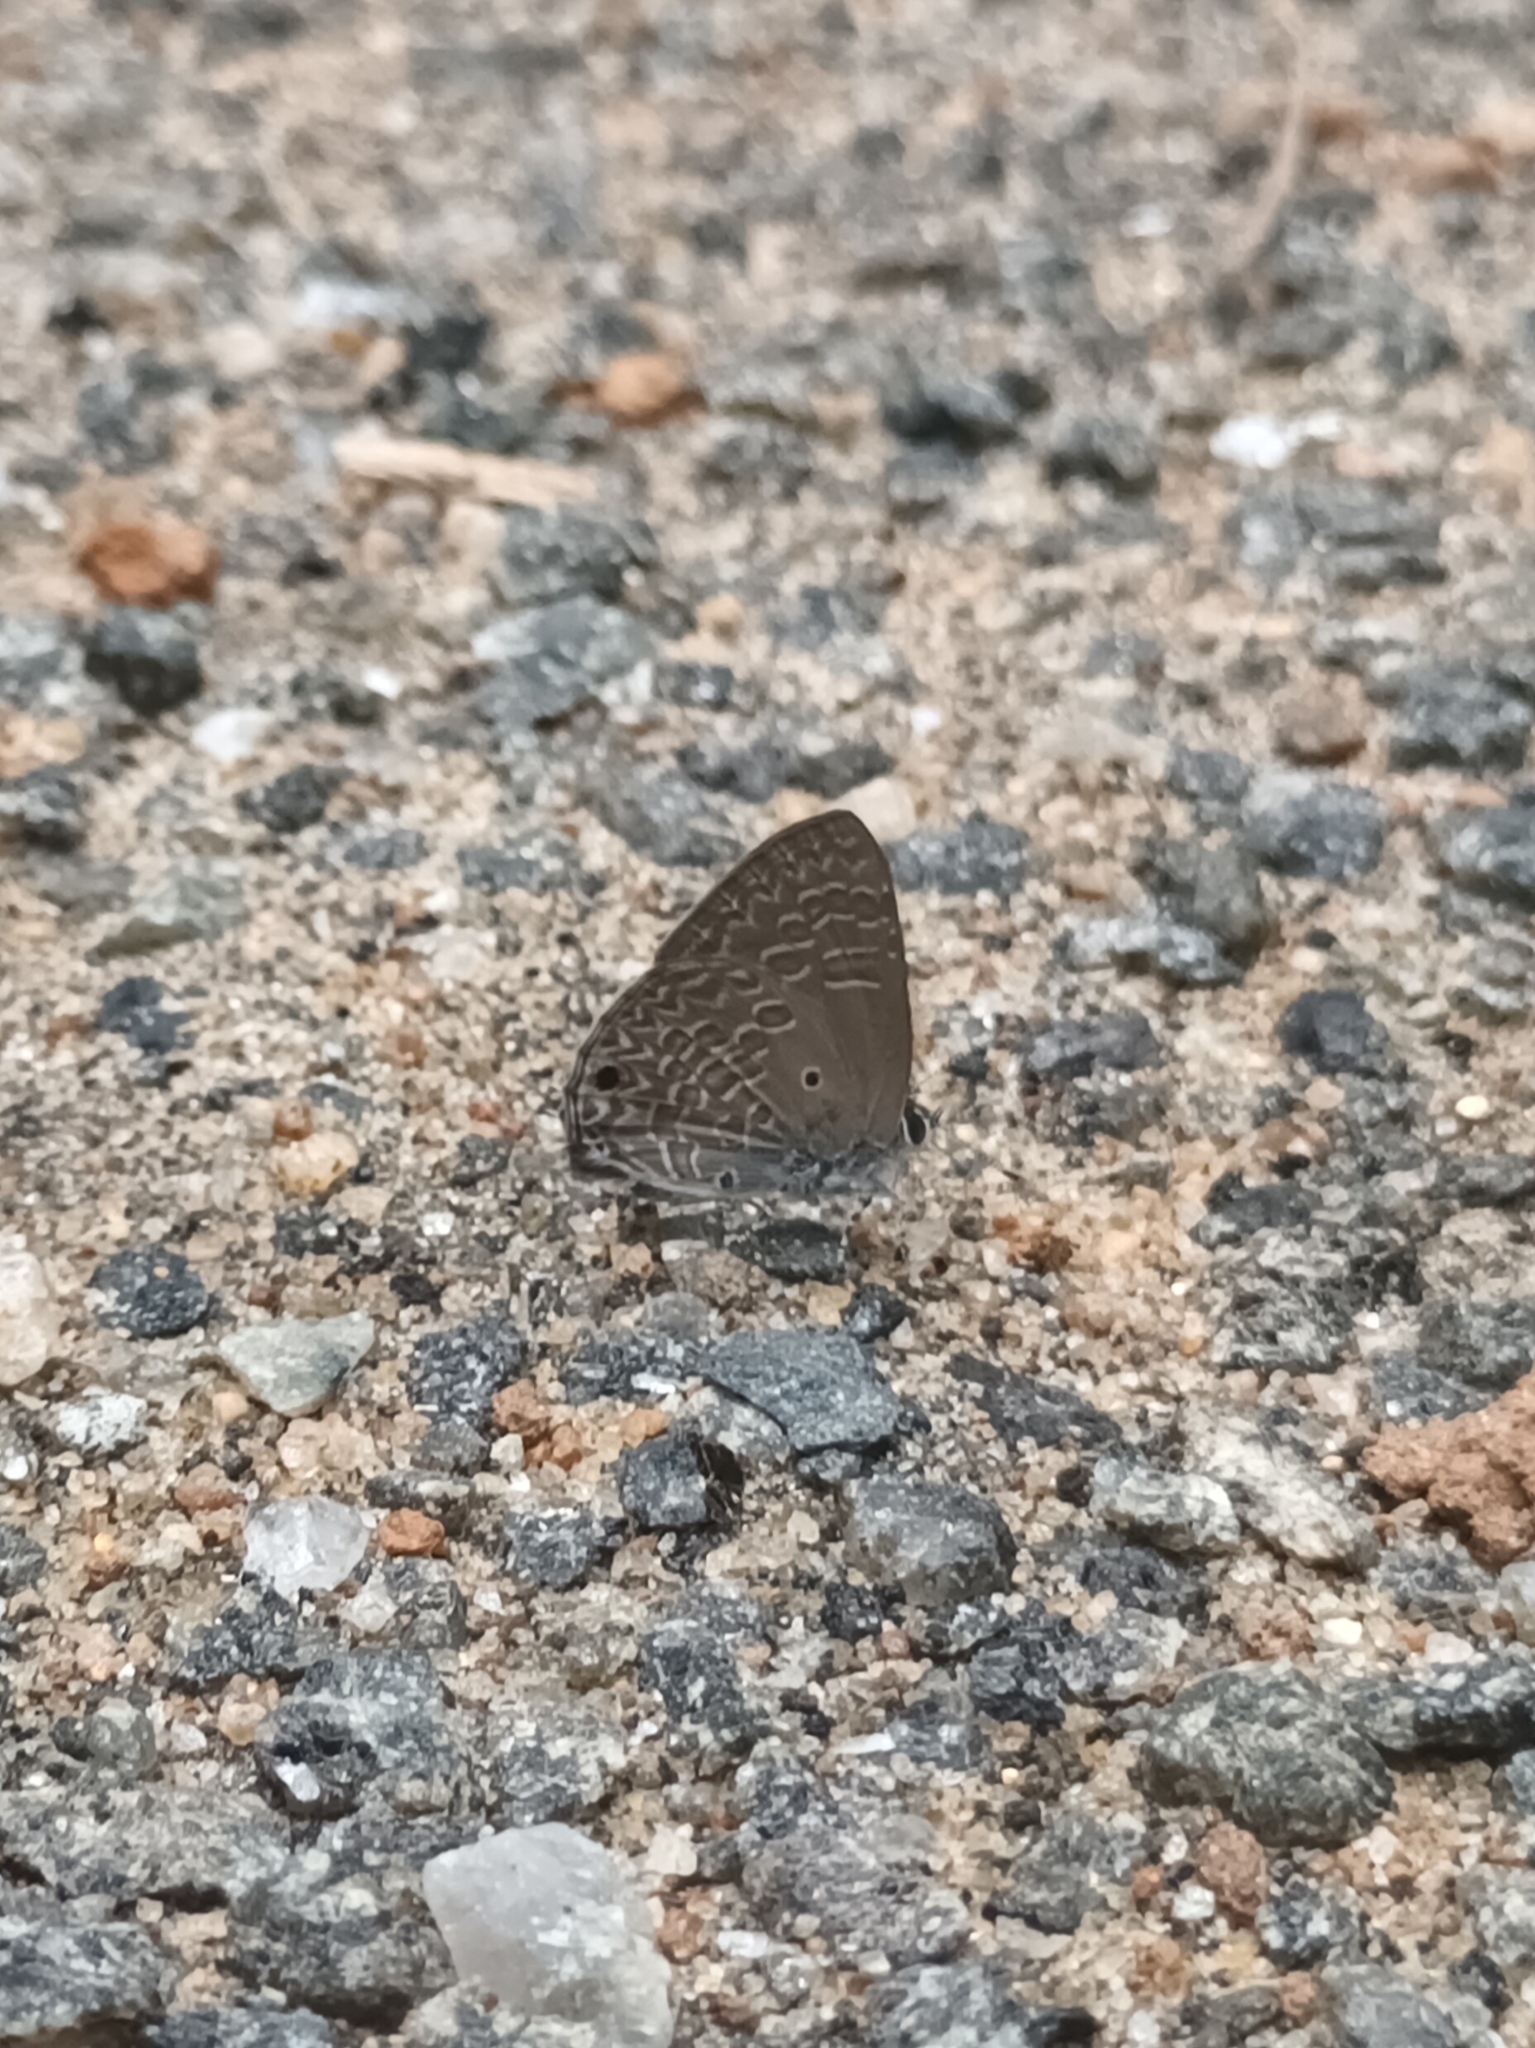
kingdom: Animalia
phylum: Arthropoda
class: Insecta
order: Lepidoptera
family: Lycaenidae
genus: Anthene
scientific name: Anthene lycaenina
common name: Pointed ciliate blue
